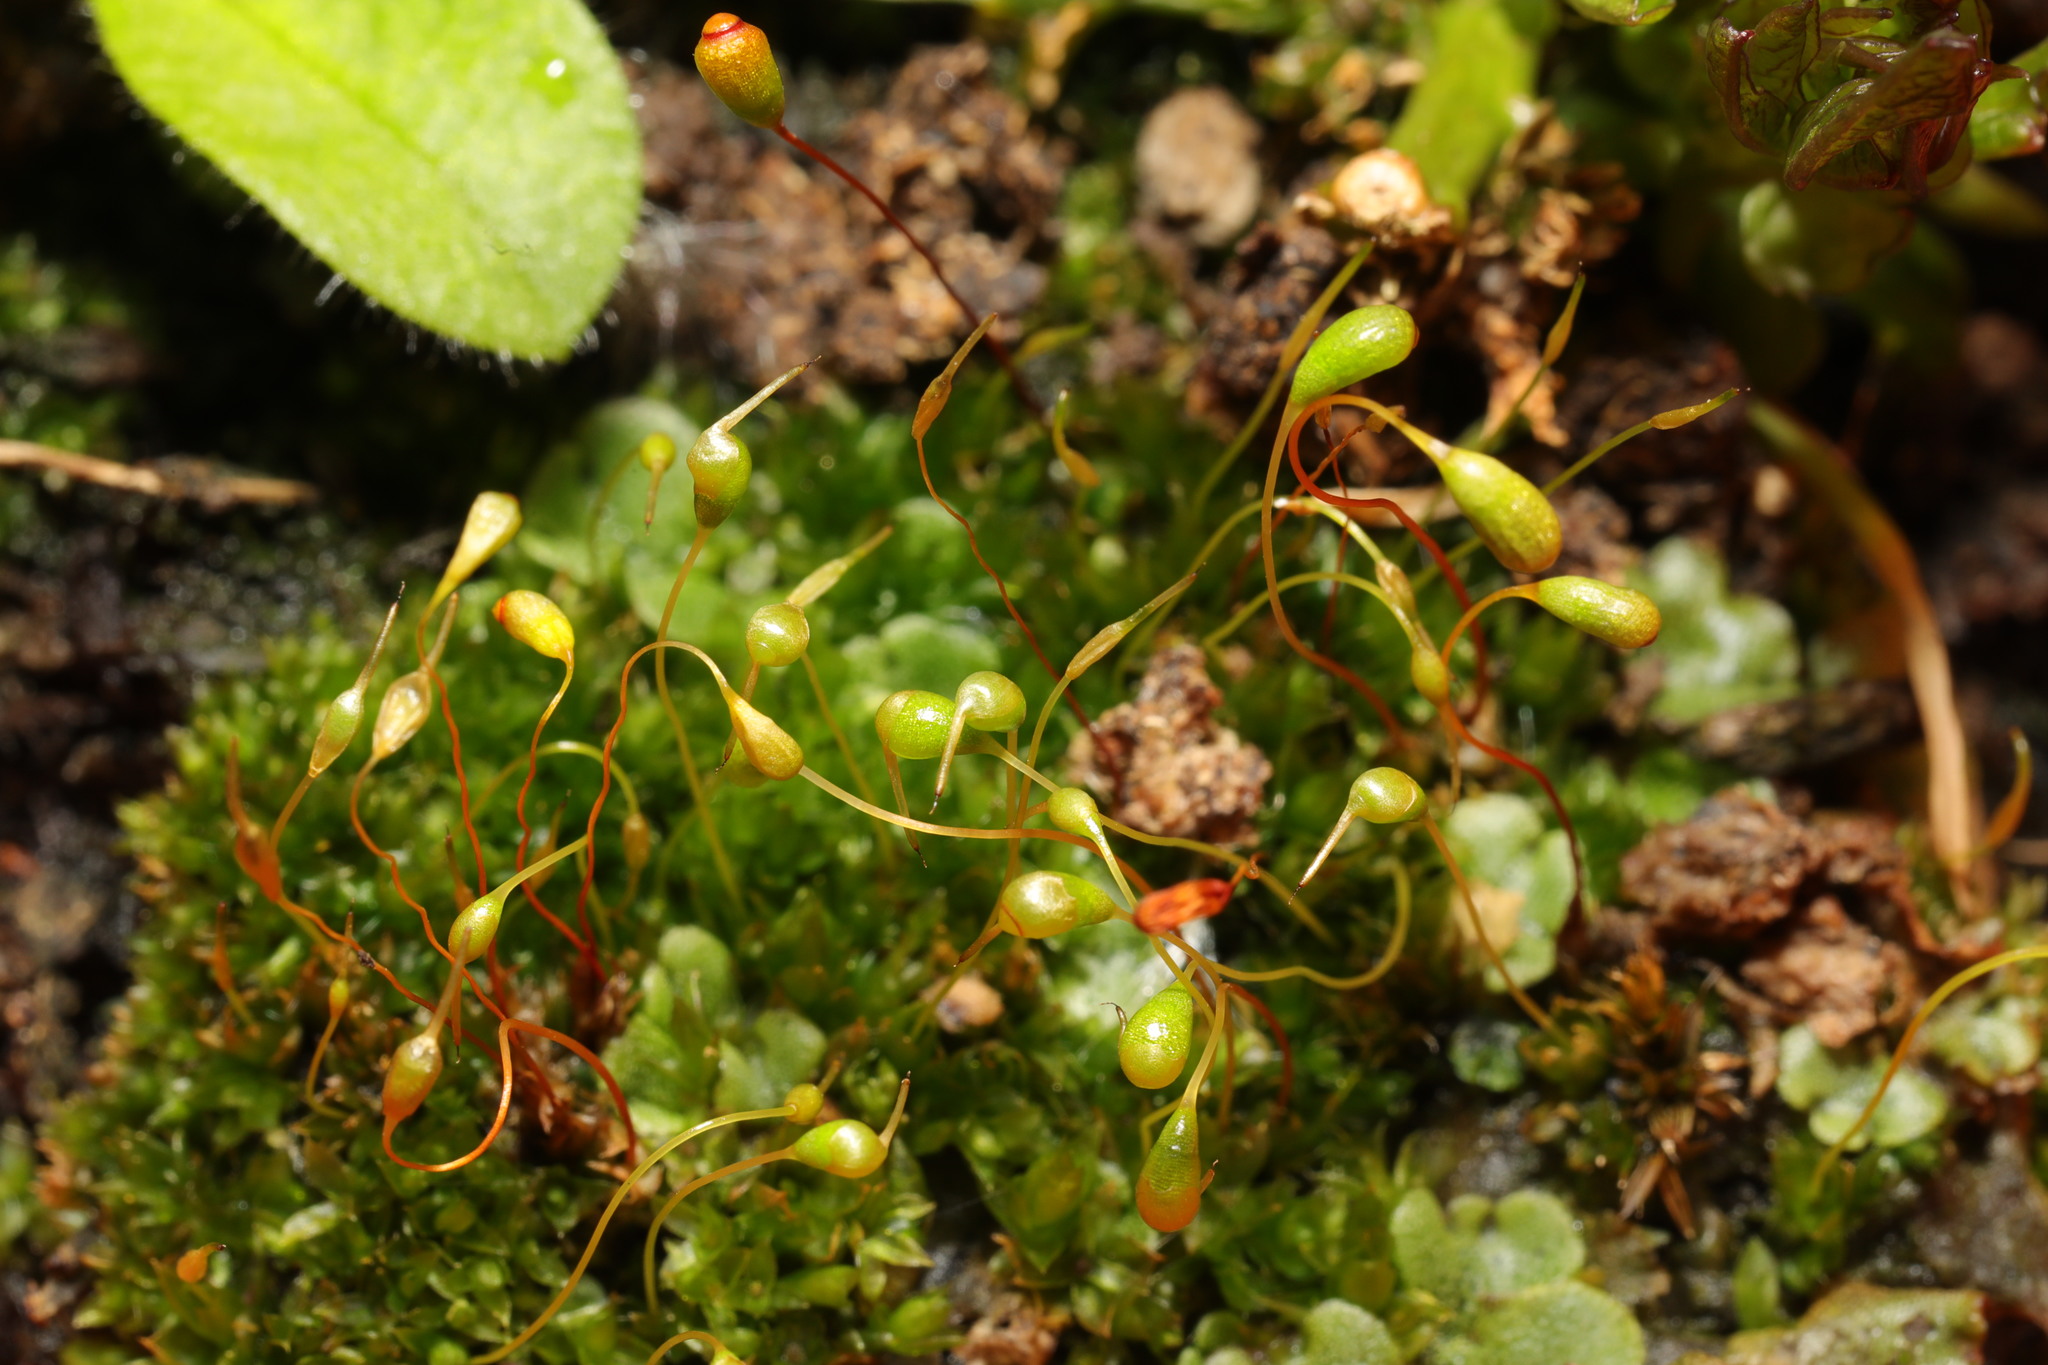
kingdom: Plantae
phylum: Bryophyta
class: Bryopsida
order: Funariales
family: Funariaceae
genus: Funaria
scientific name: Funaria hygrometrica
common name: Common cord moss
